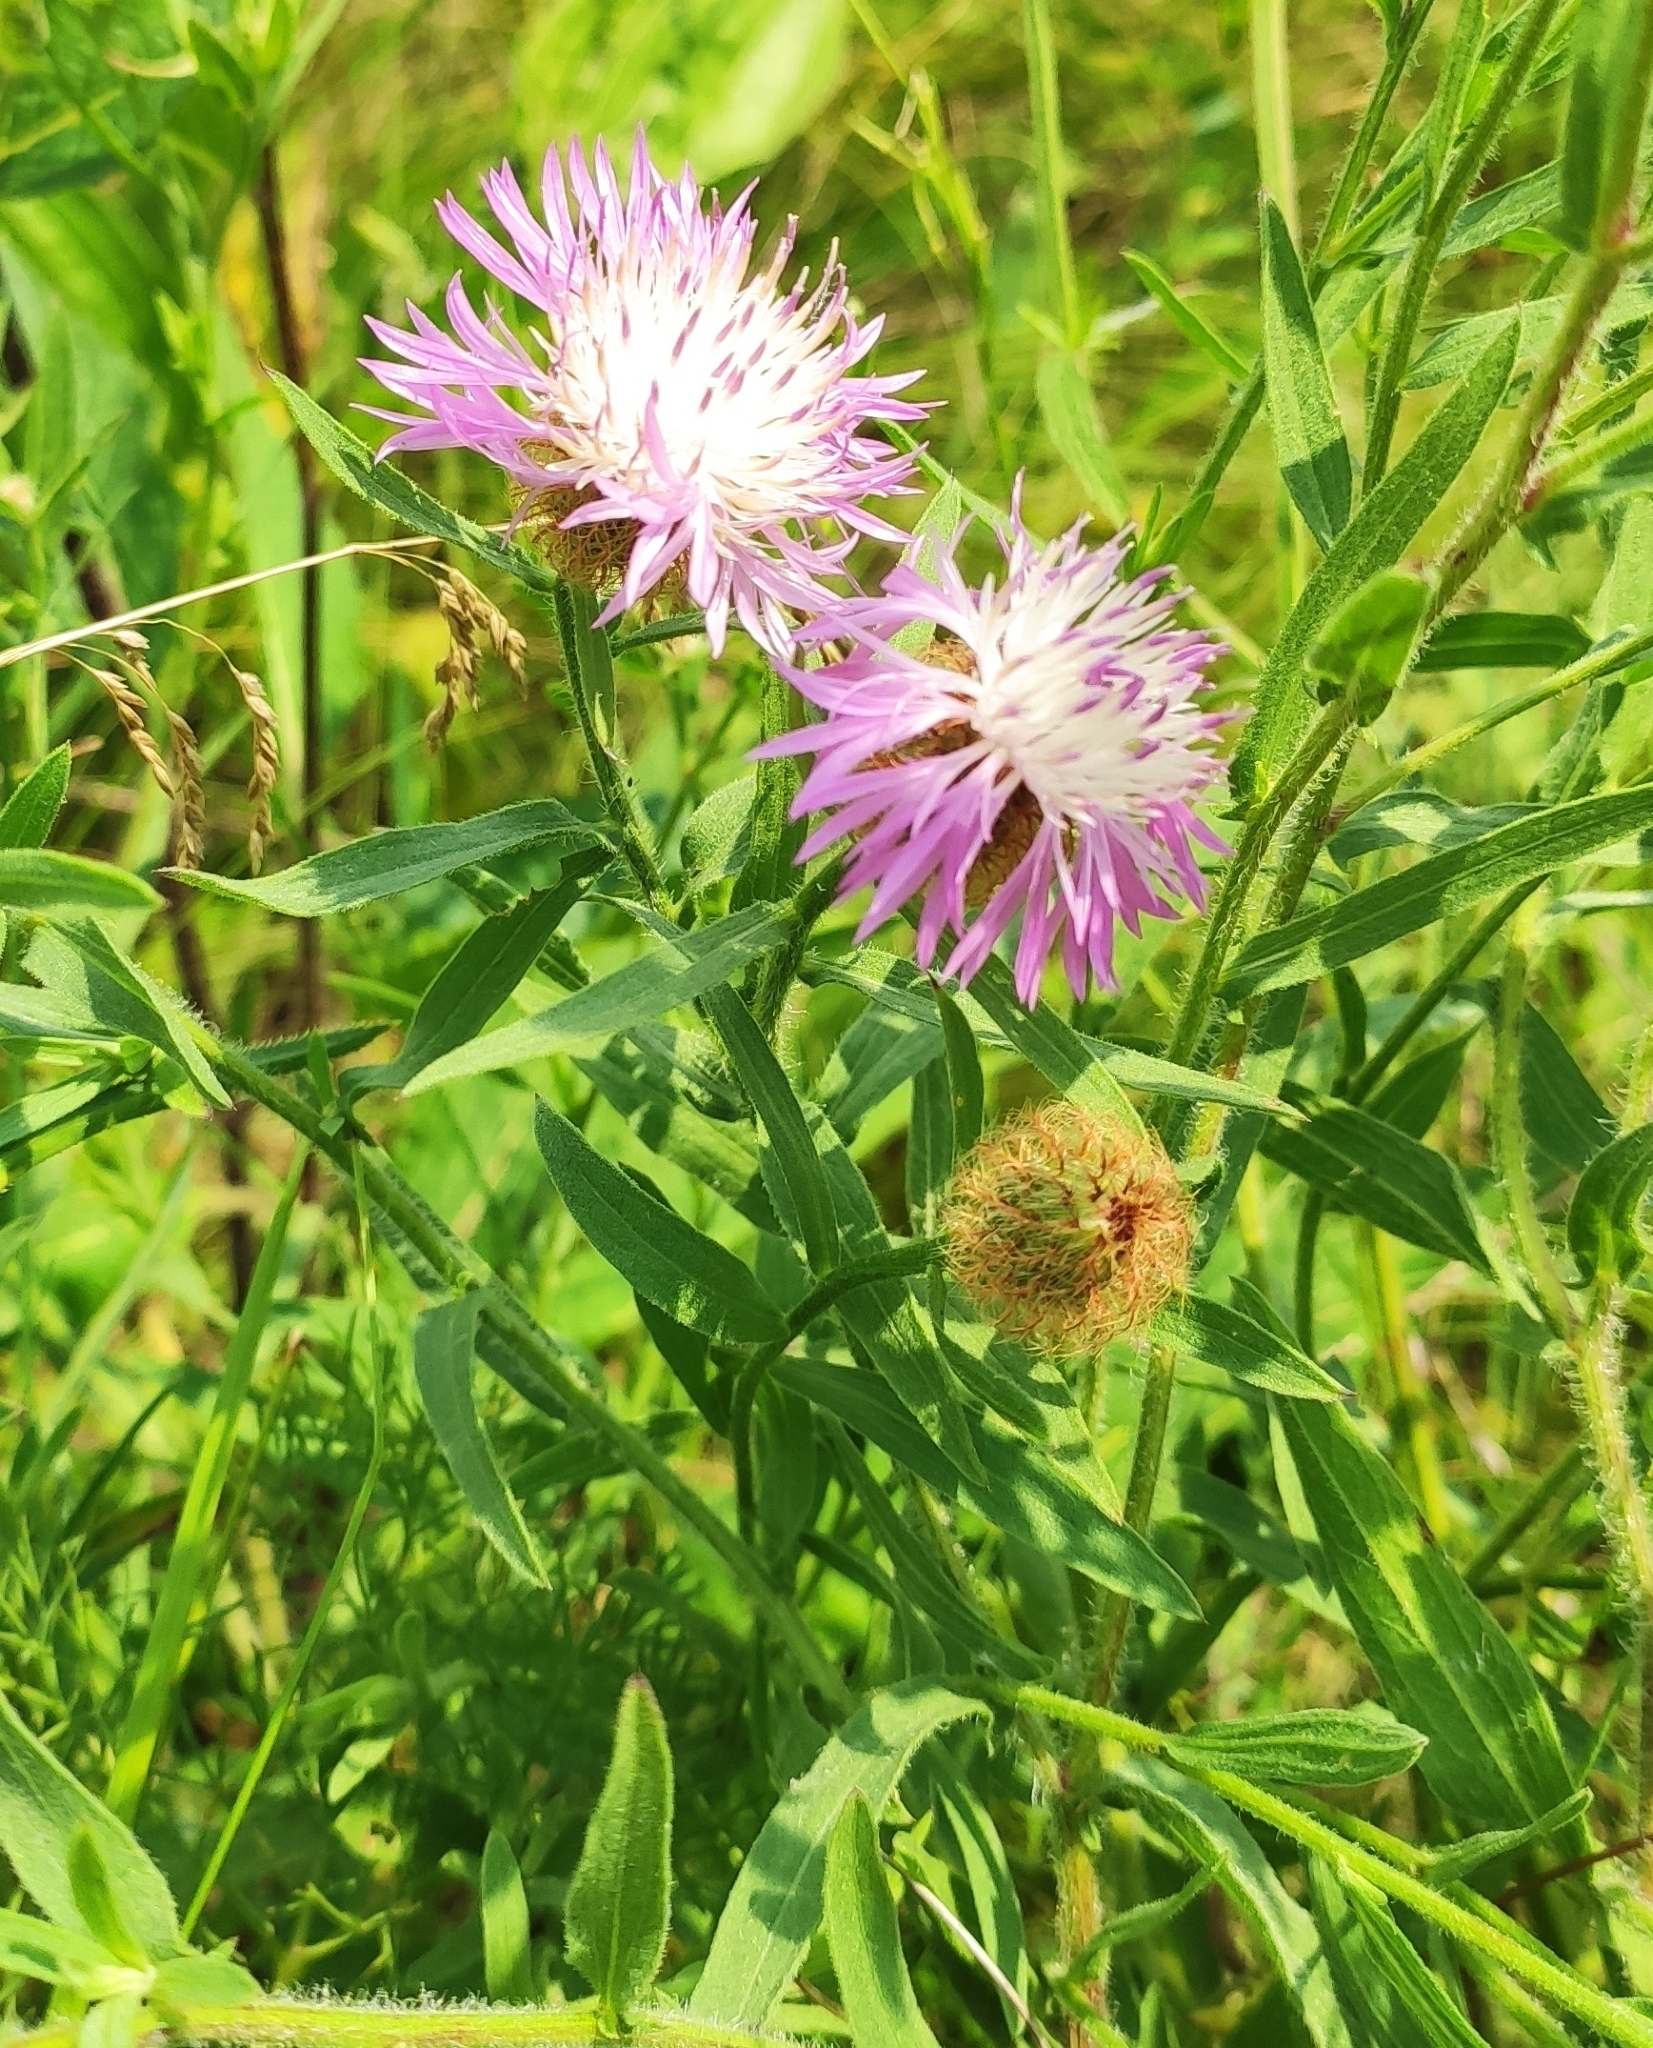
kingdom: Plantae
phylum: Tracheophyta
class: Magnoliopsida
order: Asterales
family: Asteraceae
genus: Centaurea
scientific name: Centaurea jacea
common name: Brown knapweed
